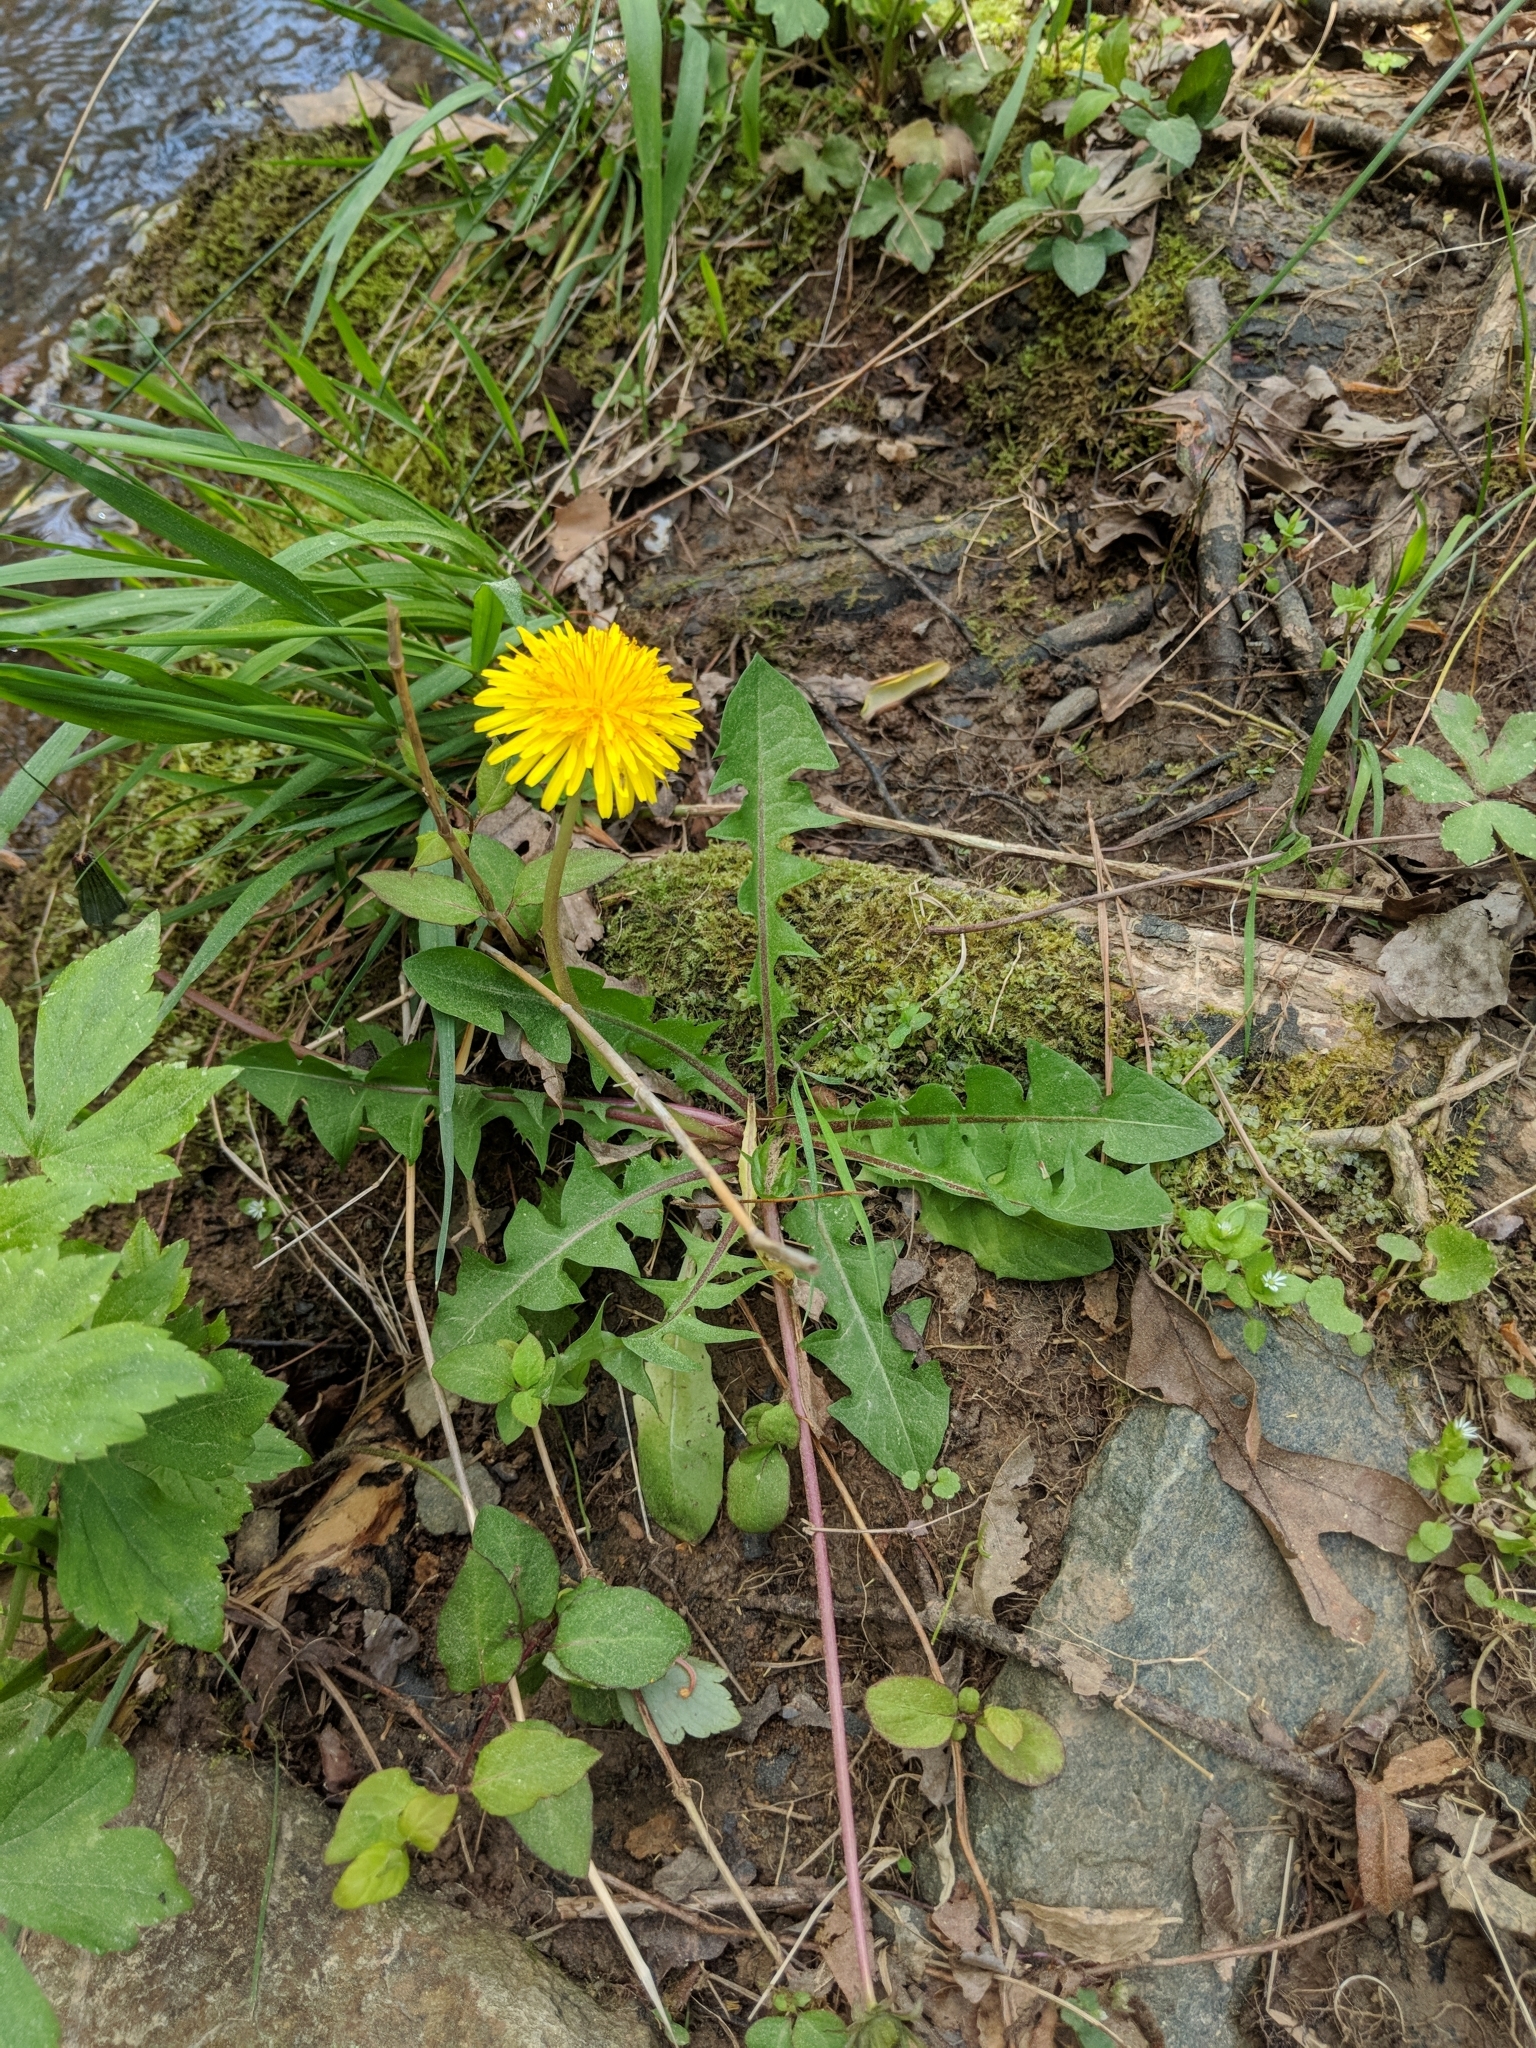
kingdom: Plantae
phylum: Tracheophyta
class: Magnoliopsida
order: Asterales
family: Asteraceae
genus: Taraxacum
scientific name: Taraxacum officinale
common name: Common dandelion
